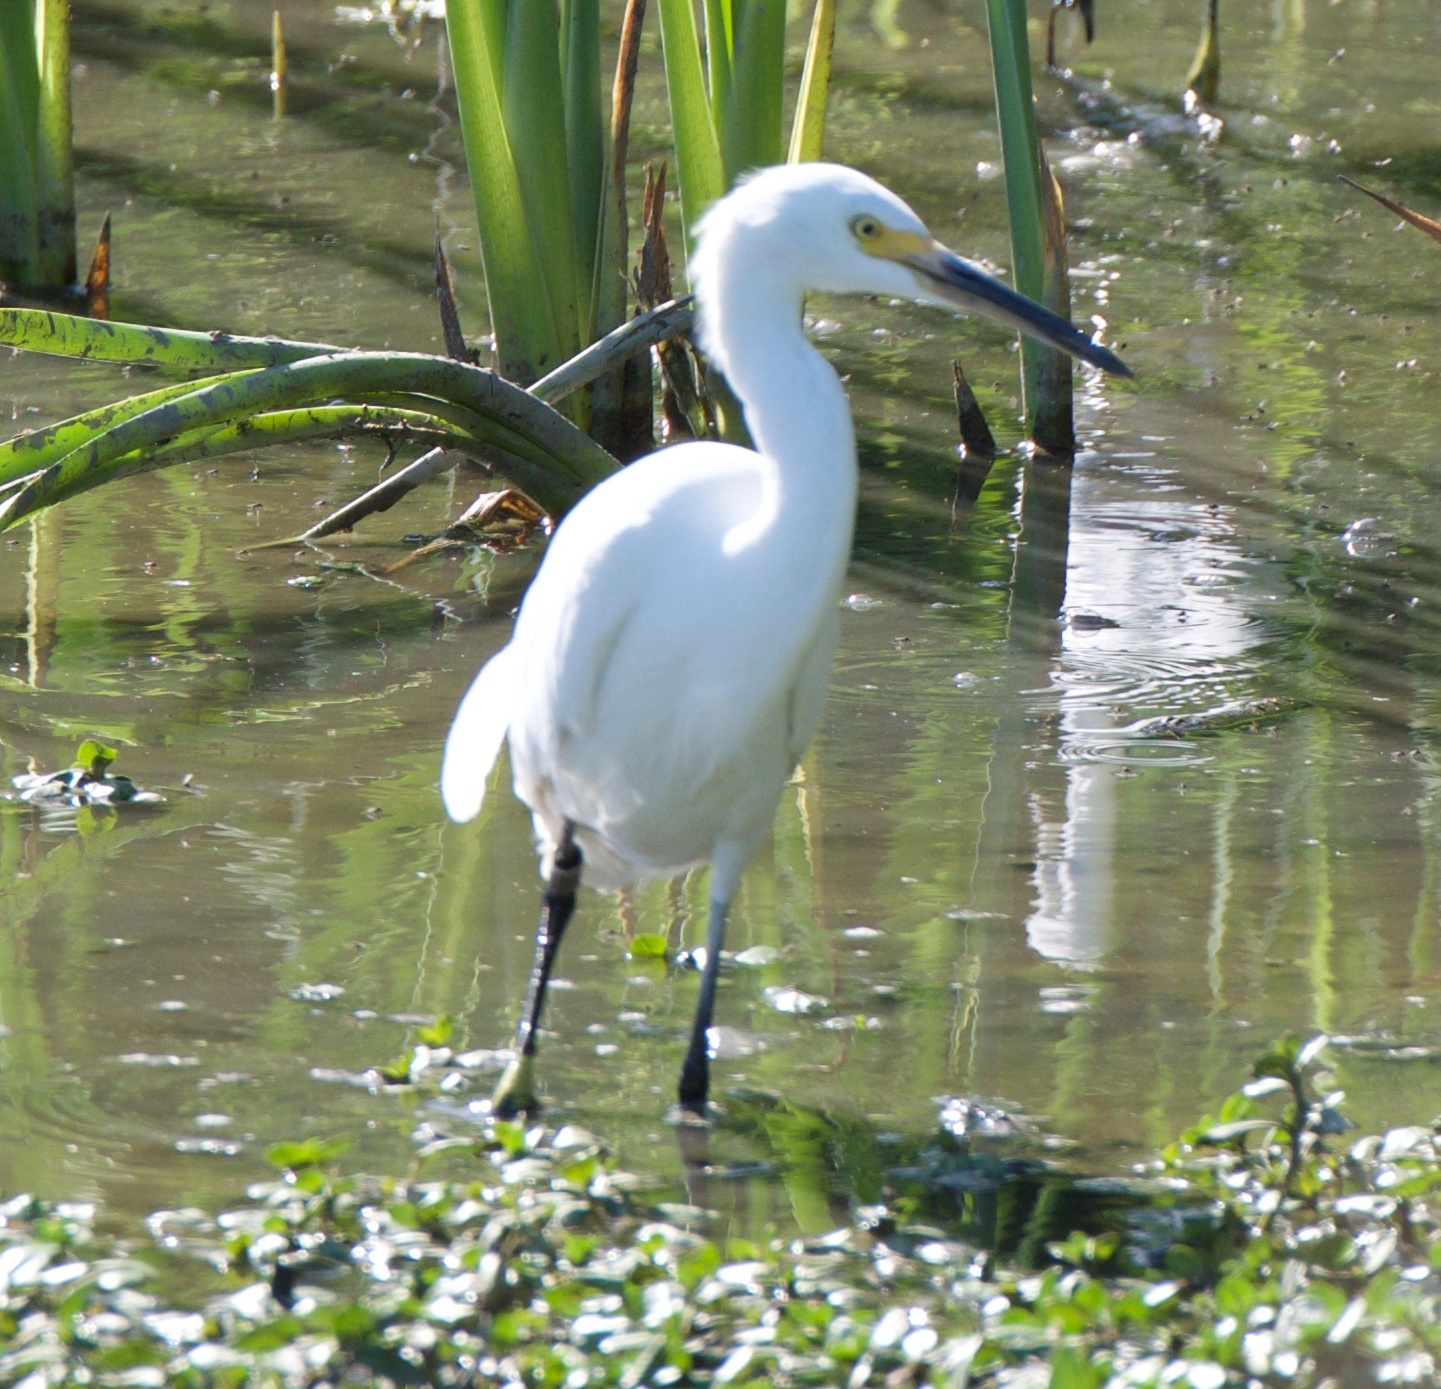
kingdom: Animalia
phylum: Chordata
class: Aves
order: Pelecaniformes
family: Ardeidae
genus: Egretta
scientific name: Egretta thula
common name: Snowy egret
